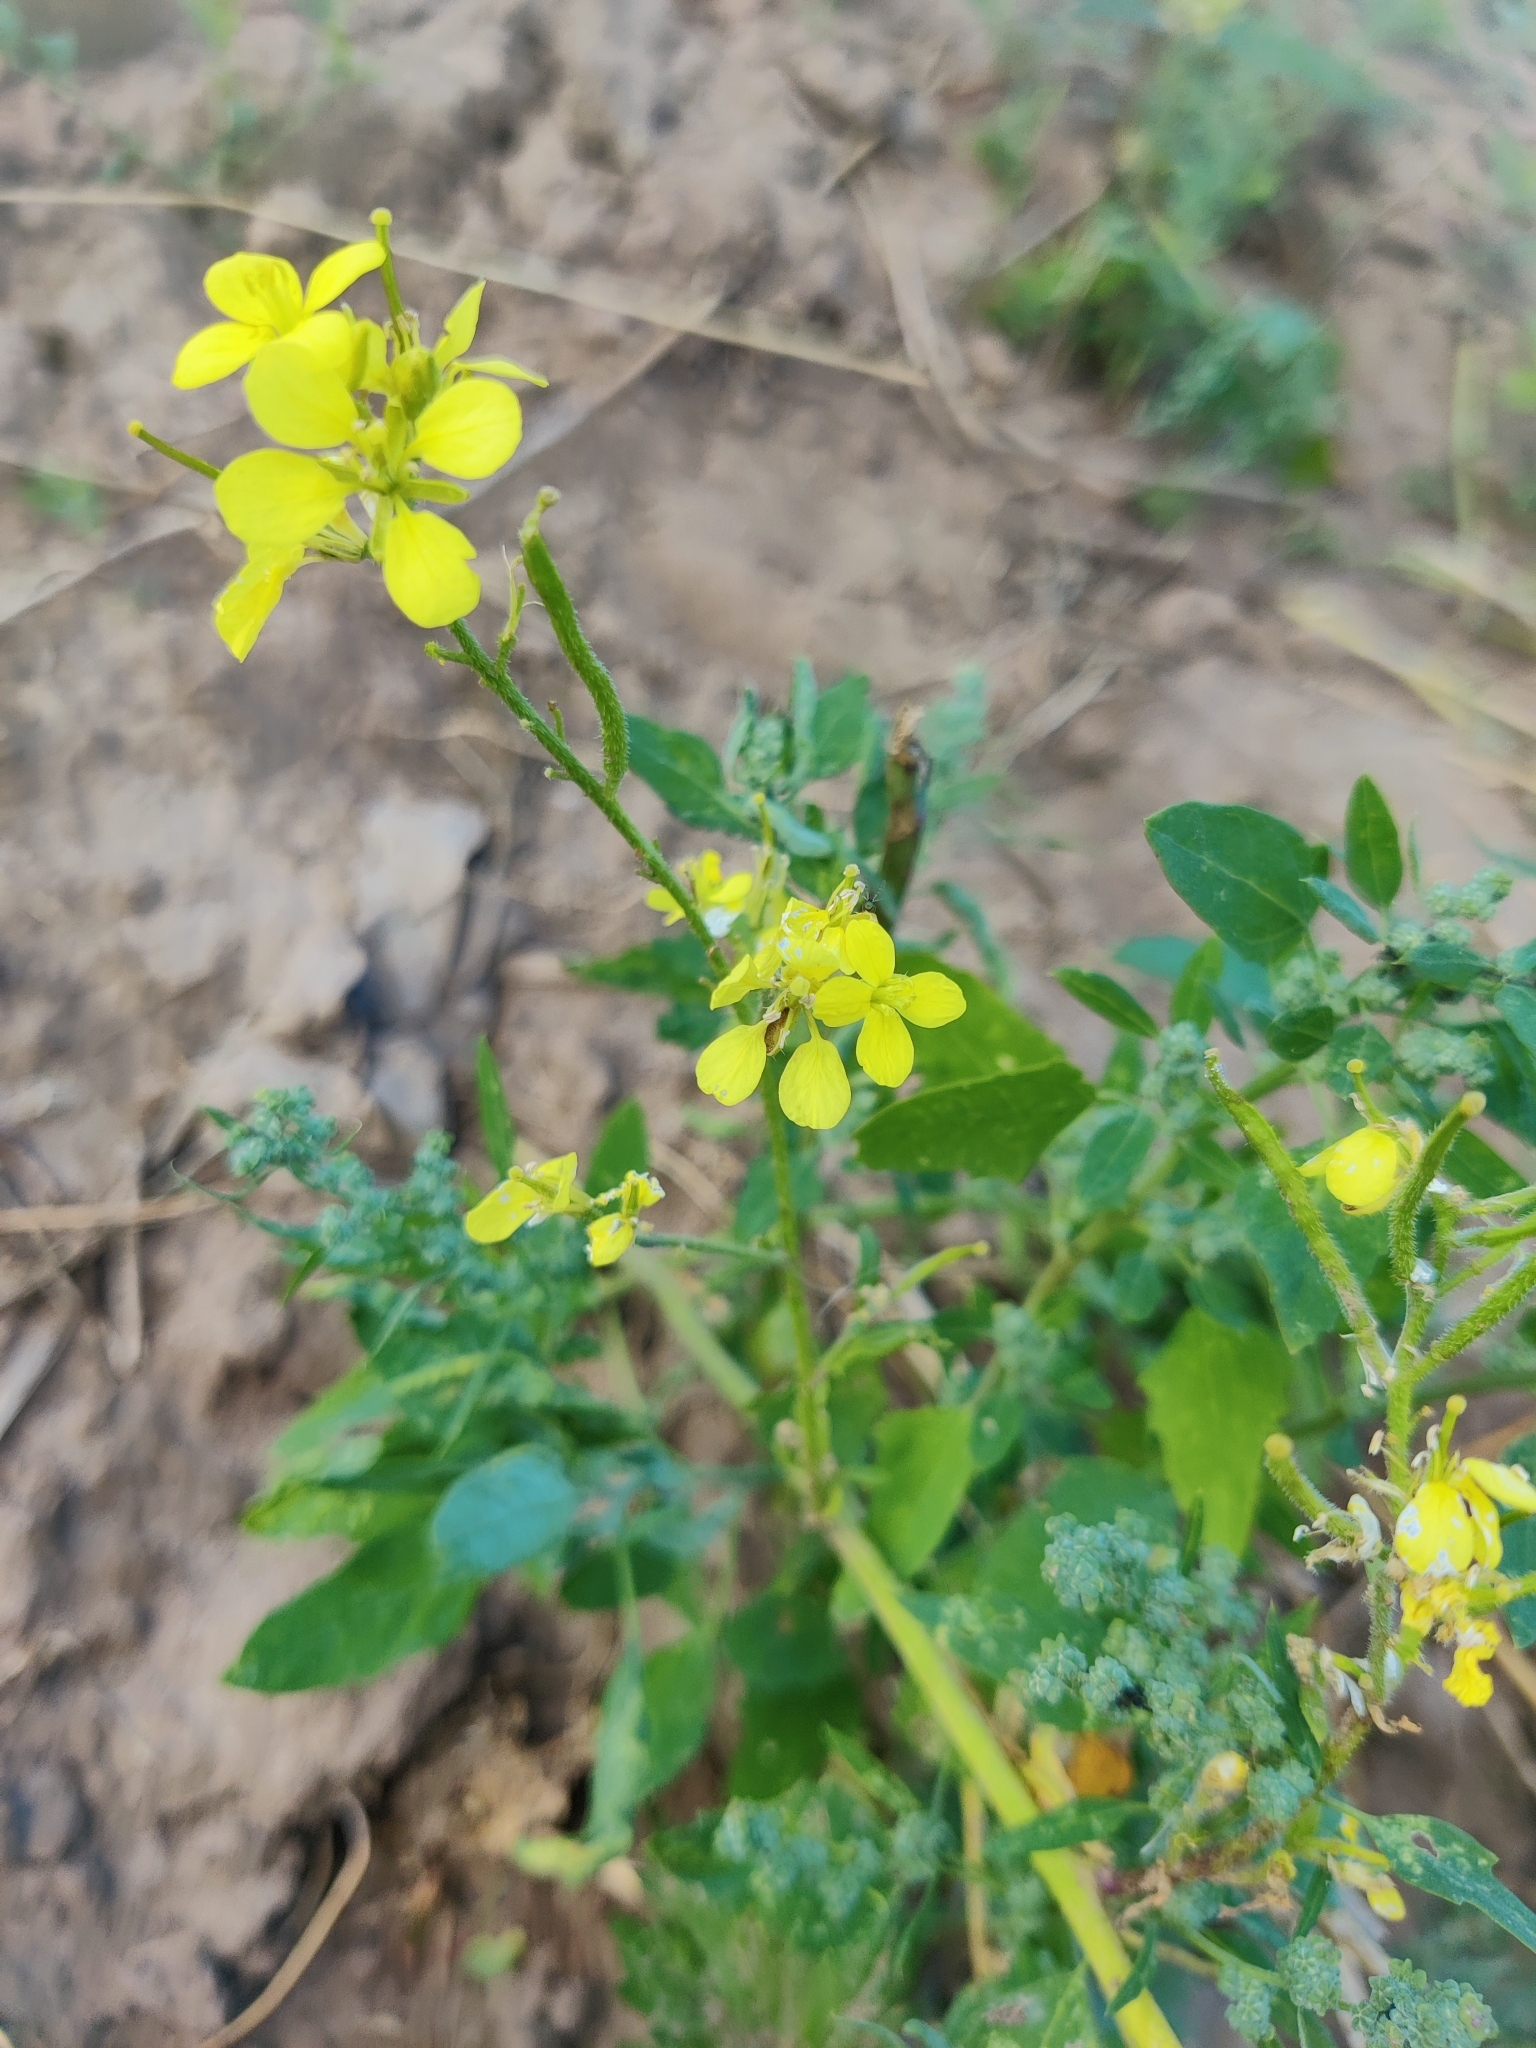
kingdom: Plantae
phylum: Tracheophyta
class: Magnoliopsida
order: Brassicales
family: Brassicaceae
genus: Sinapis
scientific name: Sinapis arvensis
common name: Charlock
